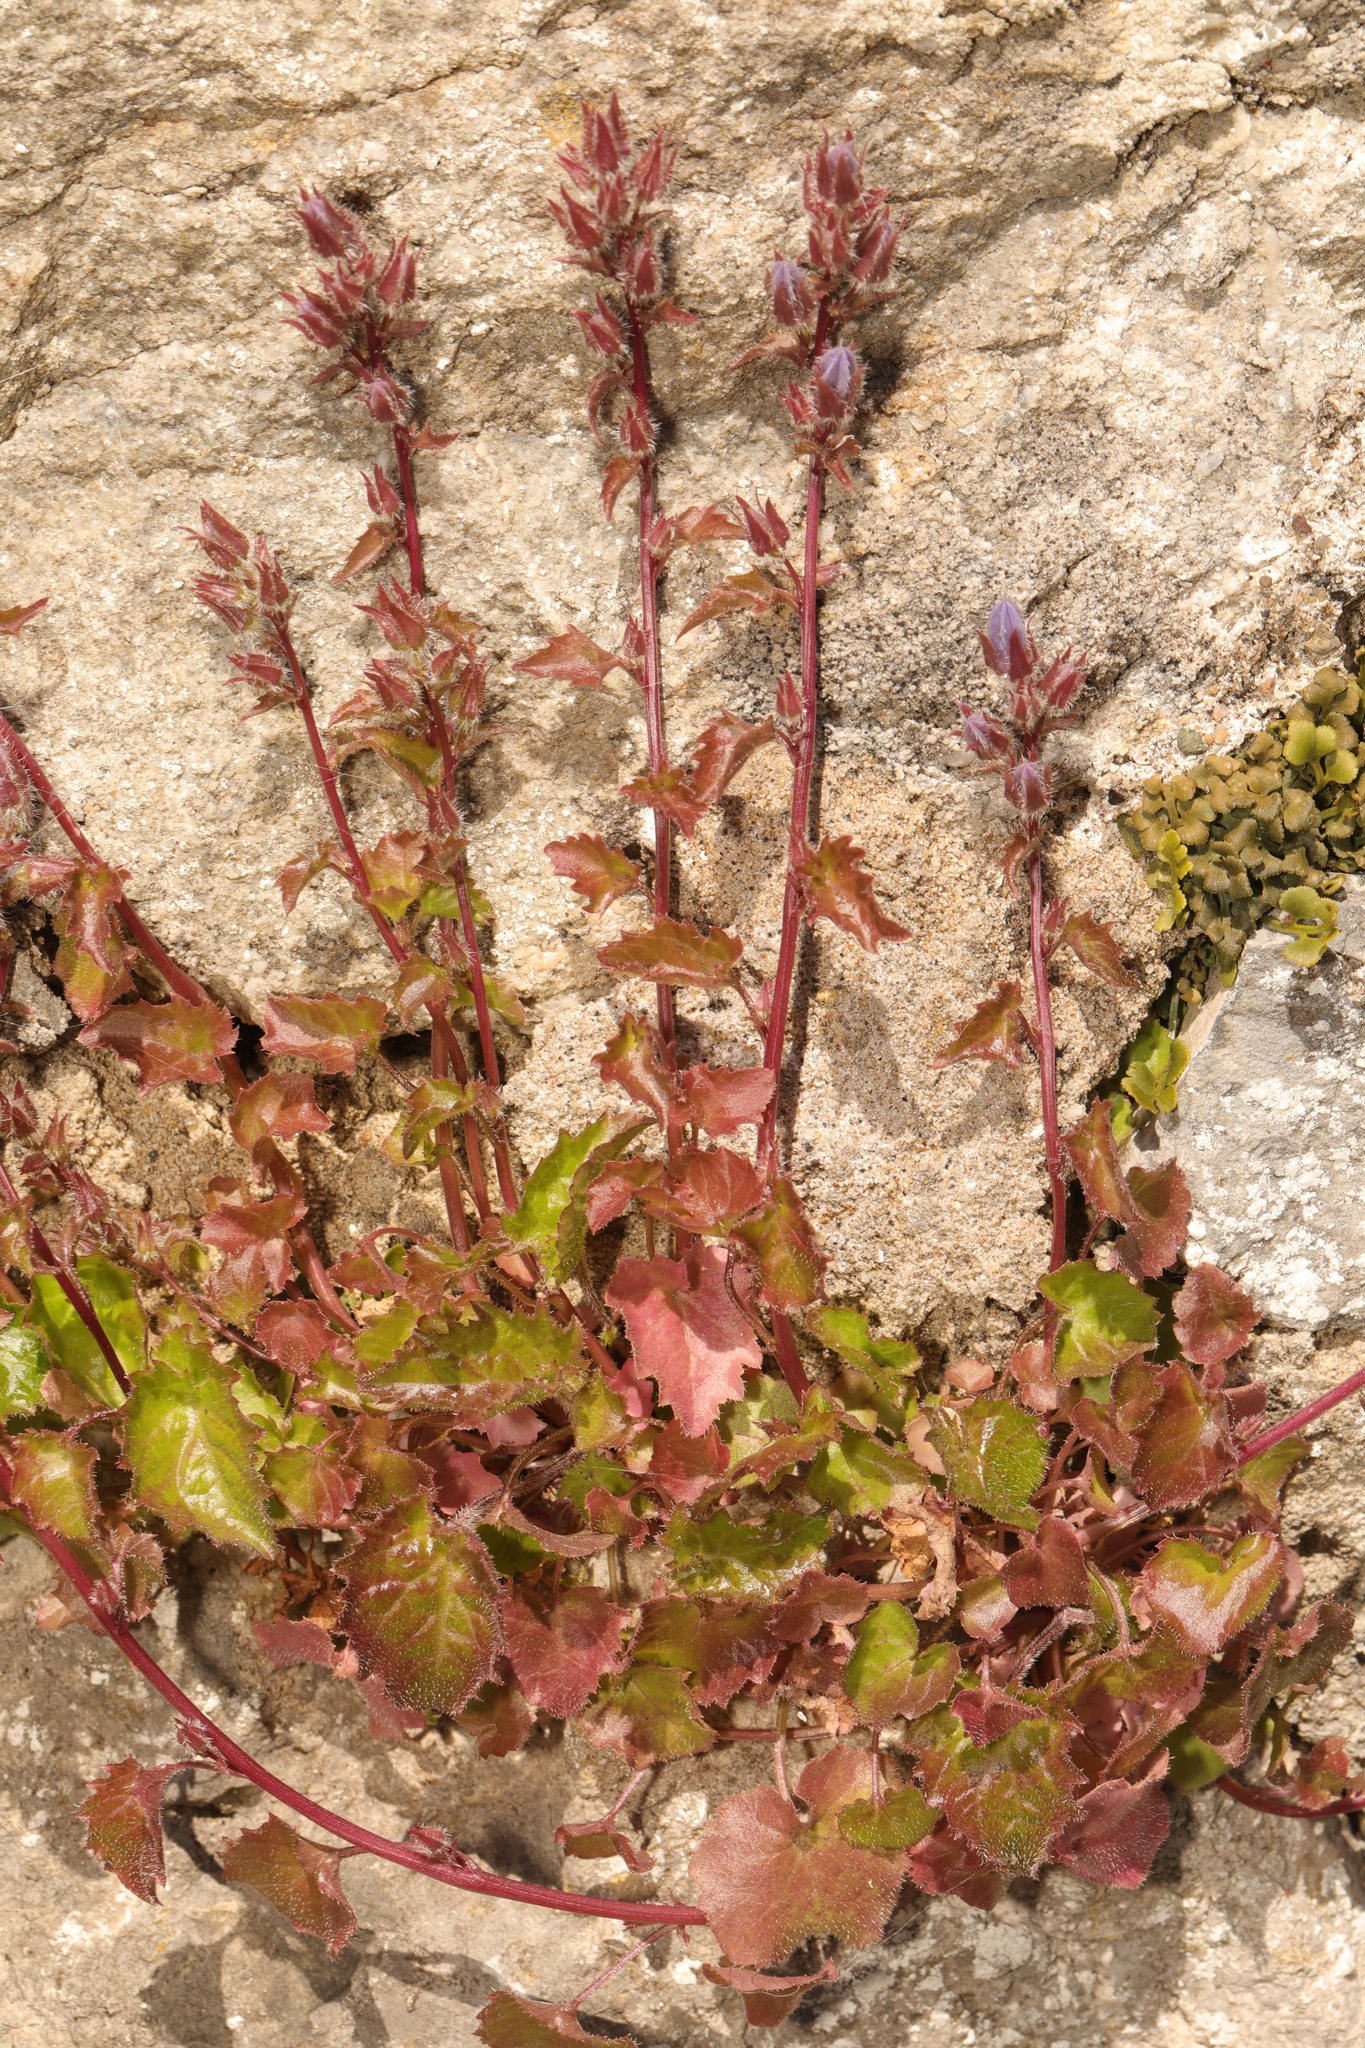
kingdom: Plantae
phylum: Tracheophyta
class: Magnoliopsida
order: Asterales
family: Campanulaceae
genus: Campanula
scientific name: Campanula portenschlagiana
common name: Adria bellflower
